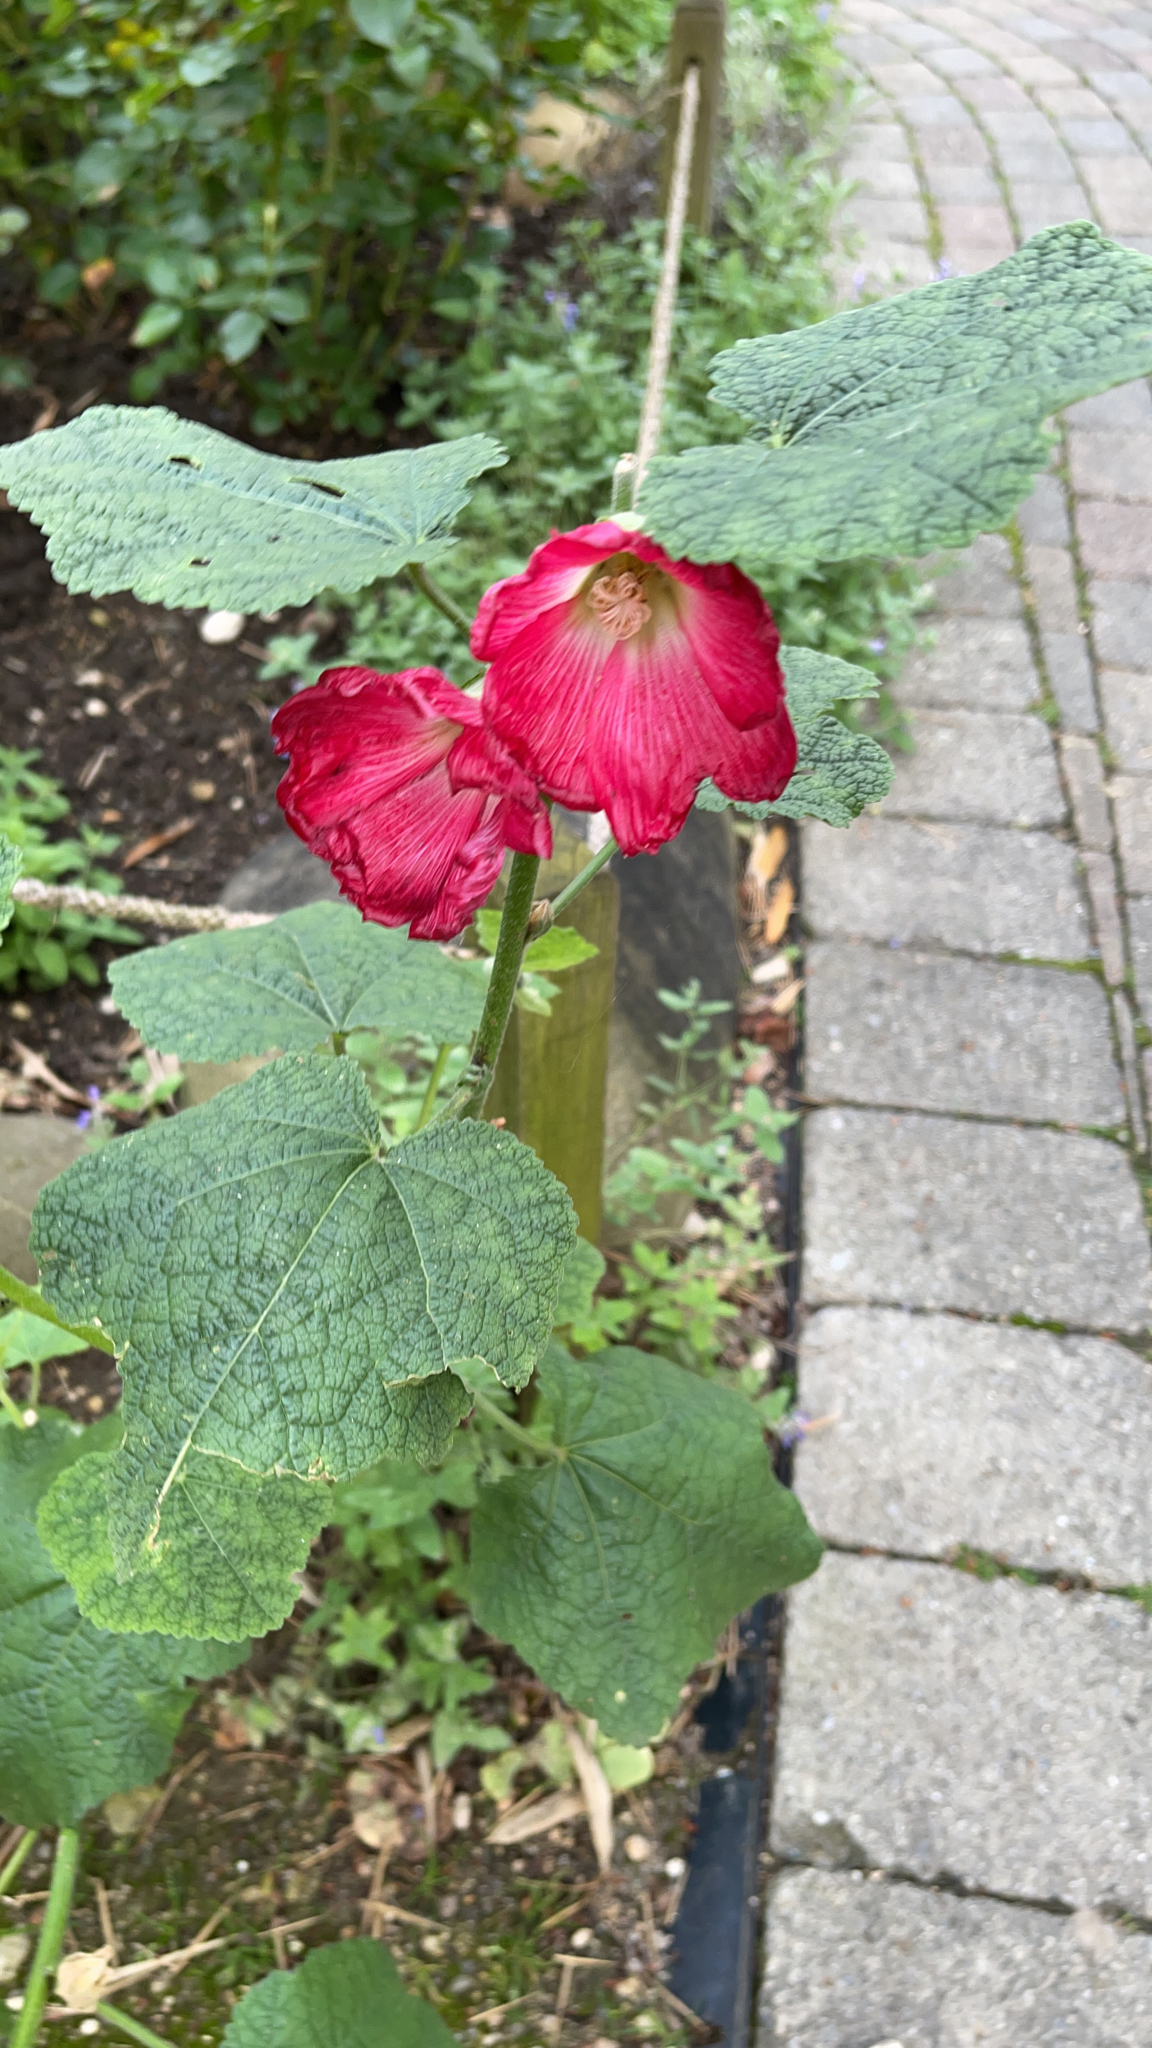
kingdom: Plantae
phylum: Tracheophyta
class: Magnoliopsida
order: Malvales
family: Malvaceae
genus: Alcea
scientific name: Alcea rosea
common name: Hollyhock
